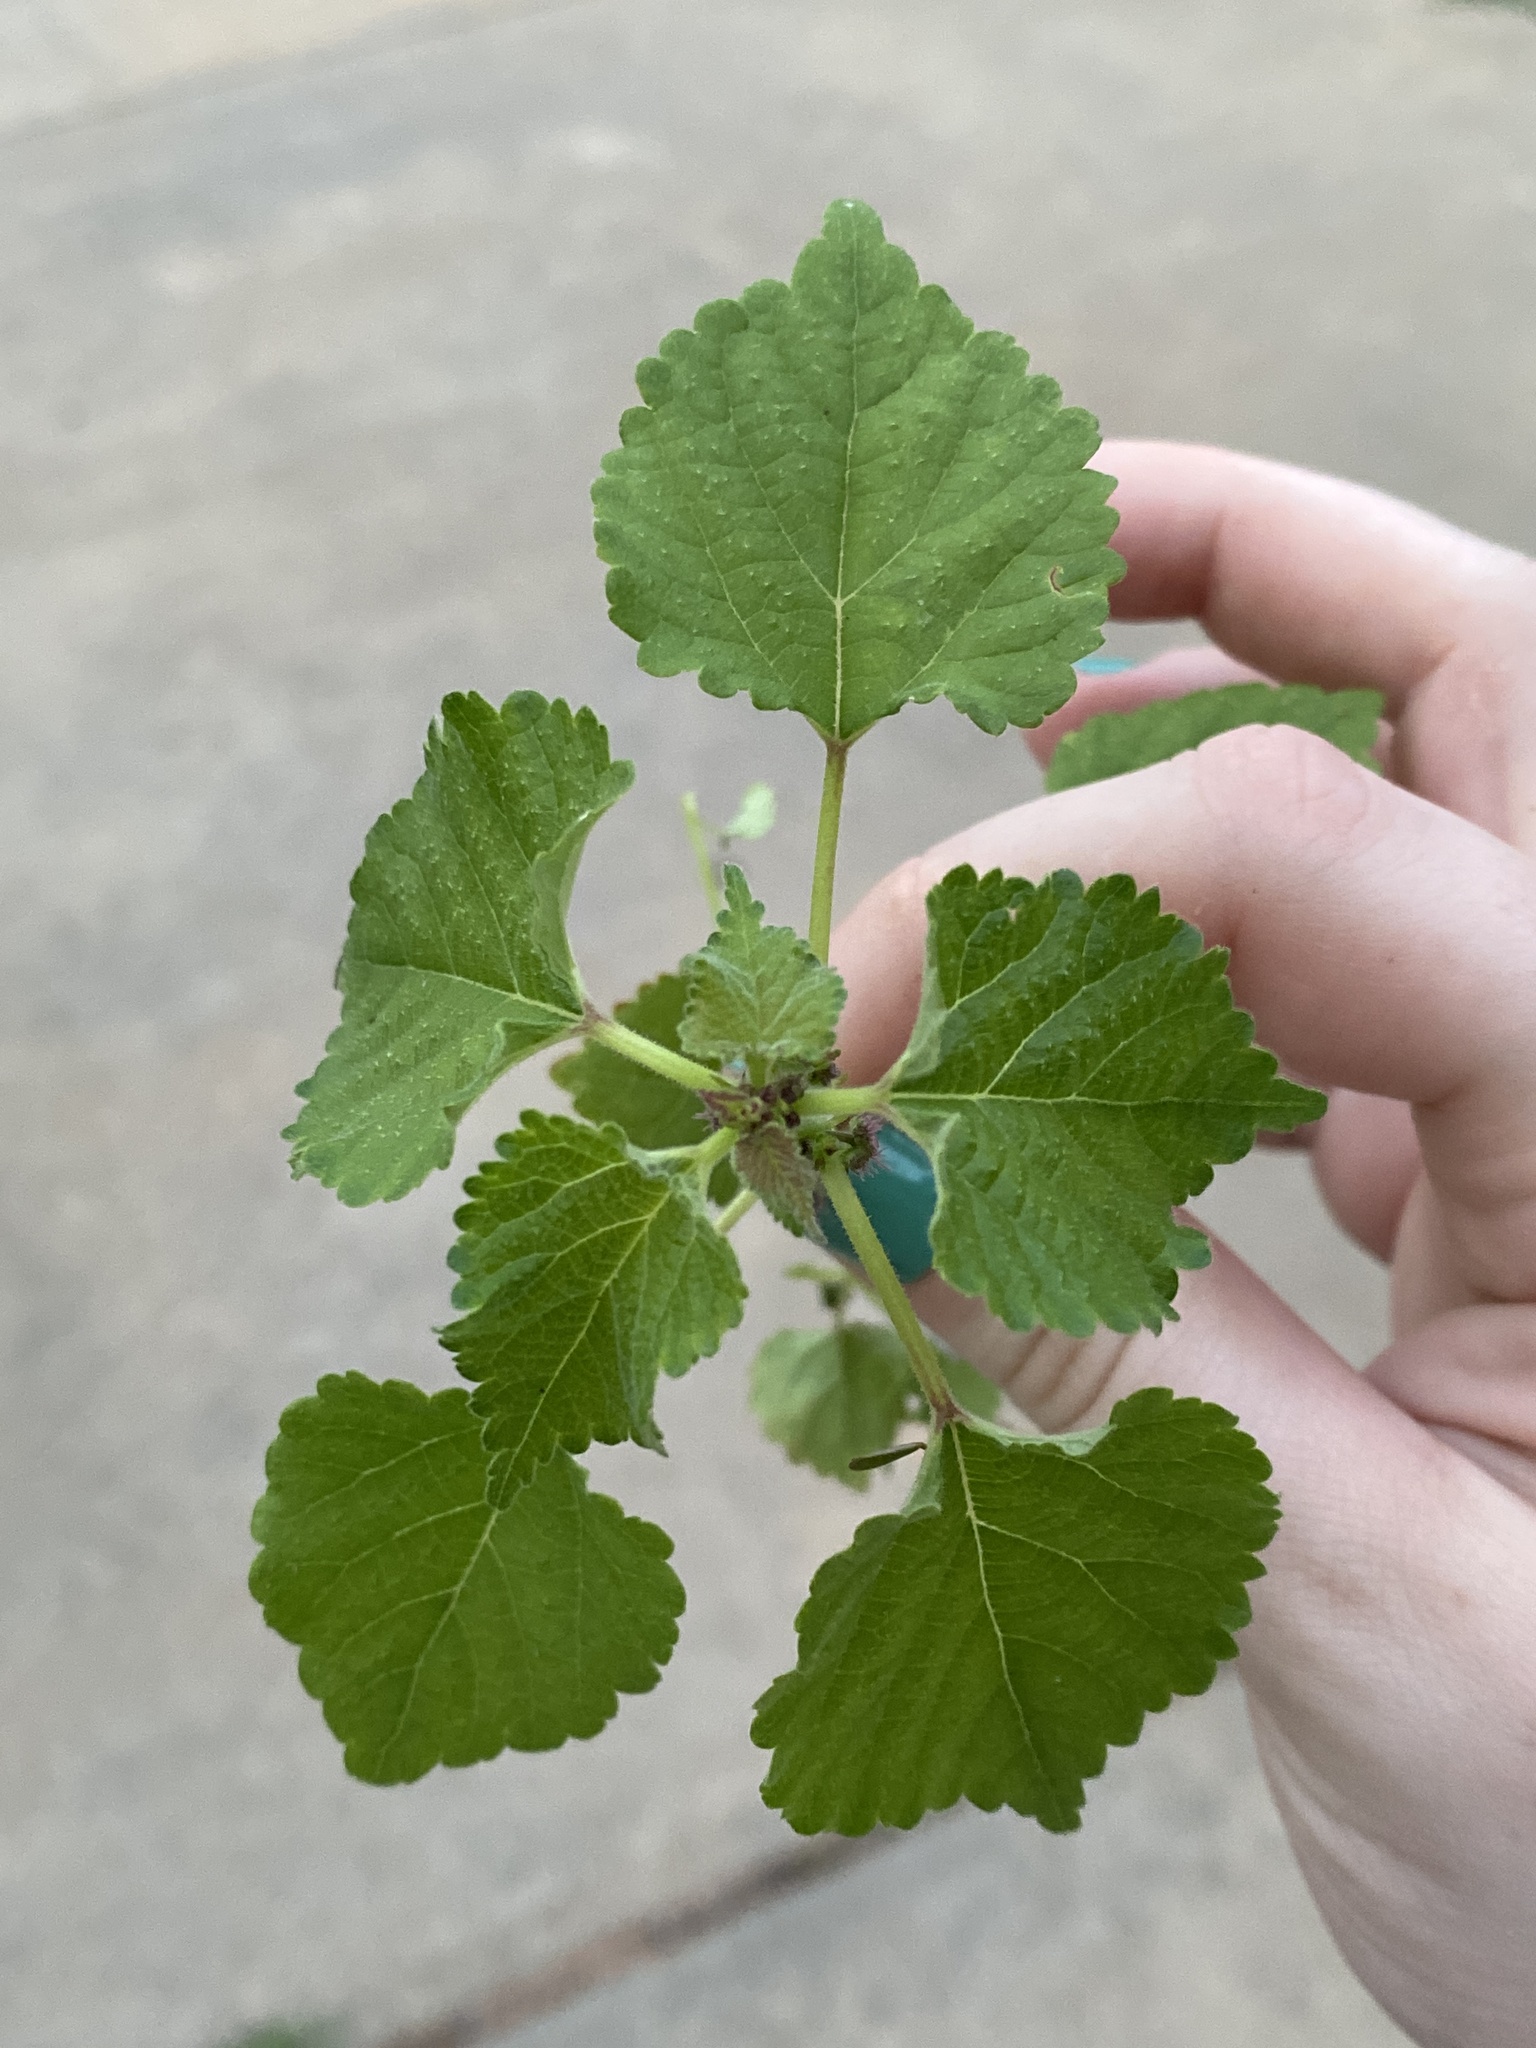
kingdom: Plantae
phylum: Tracheophyta
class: Magnoliopsida
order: Rosales
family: Moraceae
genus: Fatoua
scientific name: Fatoua villosa
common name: Hairy crabweed
